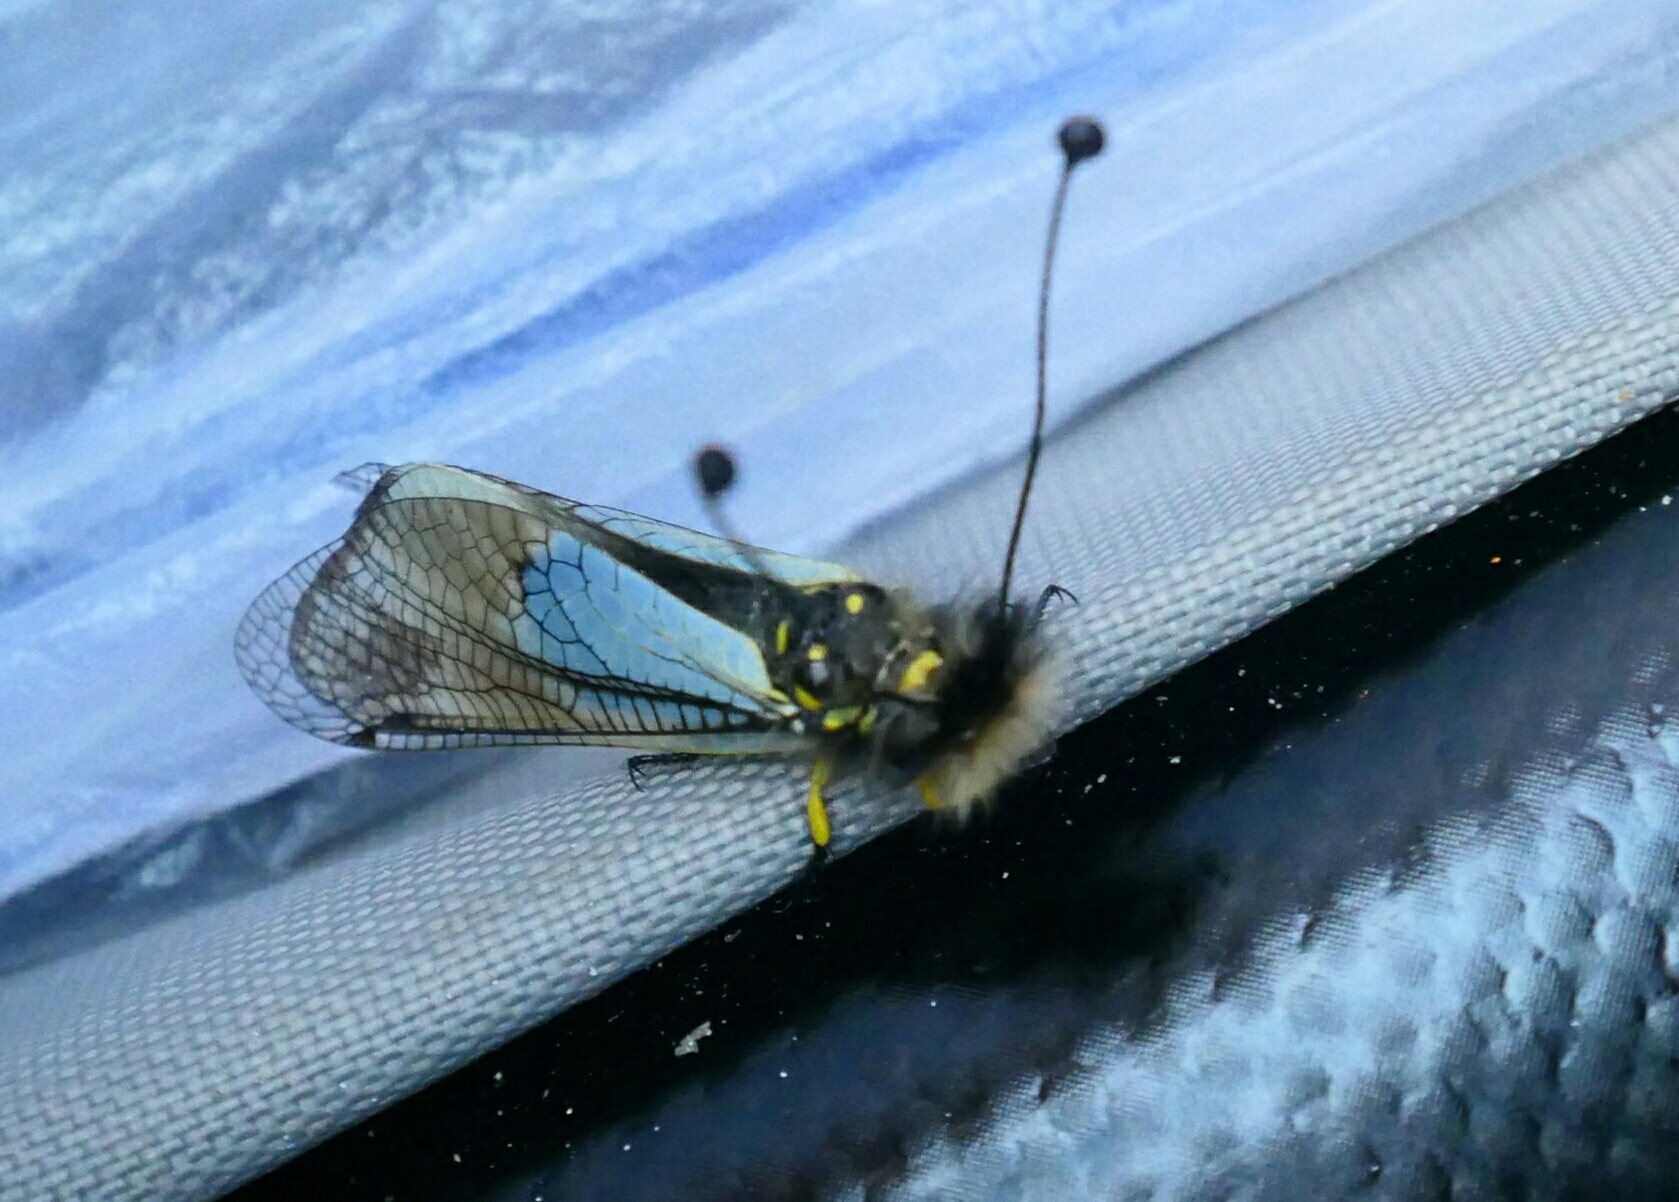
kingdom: Animalia
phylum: Arthropoda
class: Insecta
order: Neuroptera
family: Ascalaphidae
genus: Libelloides
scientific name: Libelloides lacteus
